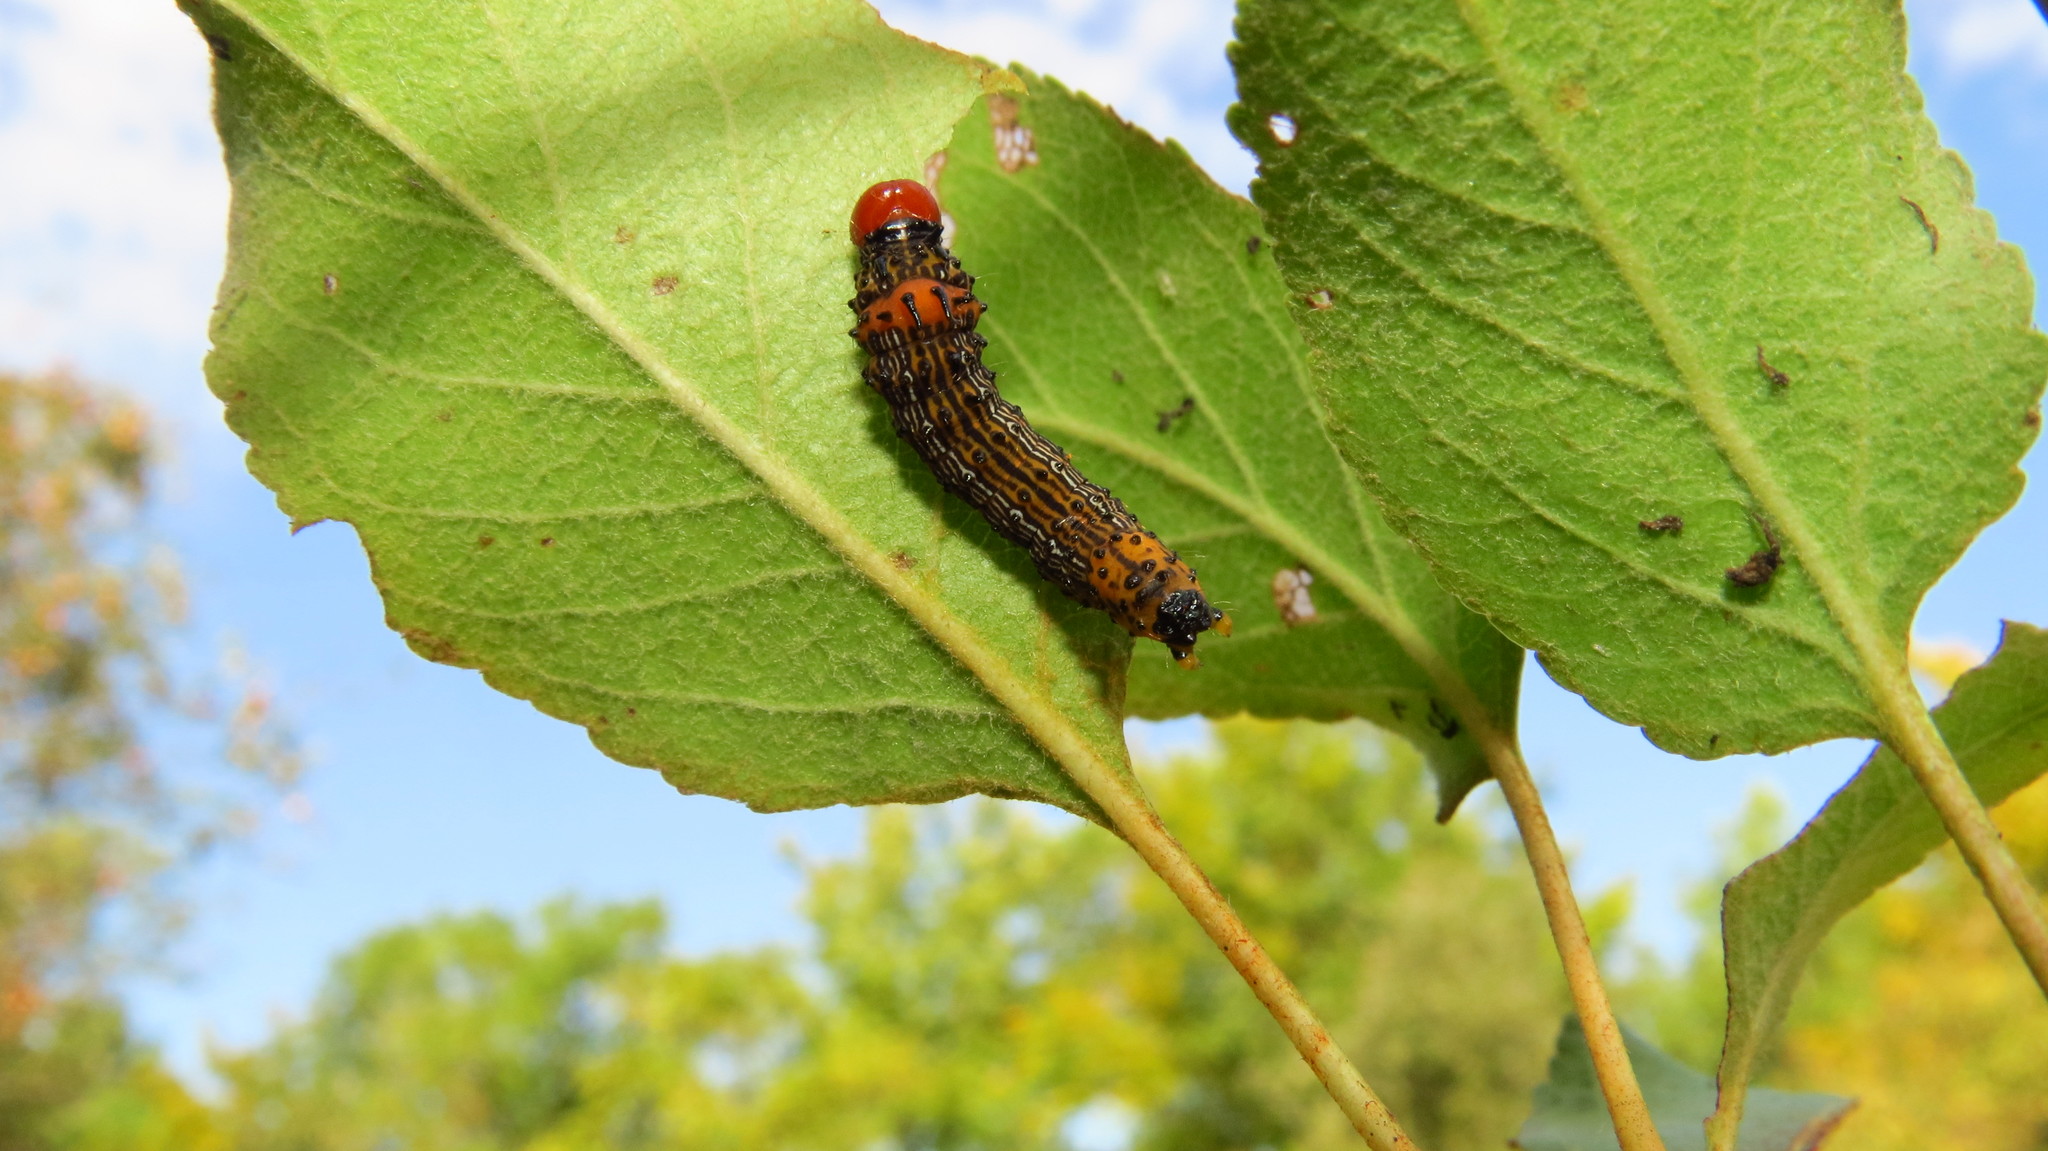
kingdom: Animalia
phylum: Arthropoda
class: Insecta
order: Lepidoptera
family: Notodontidae
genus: Schizura
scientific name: Schizura
